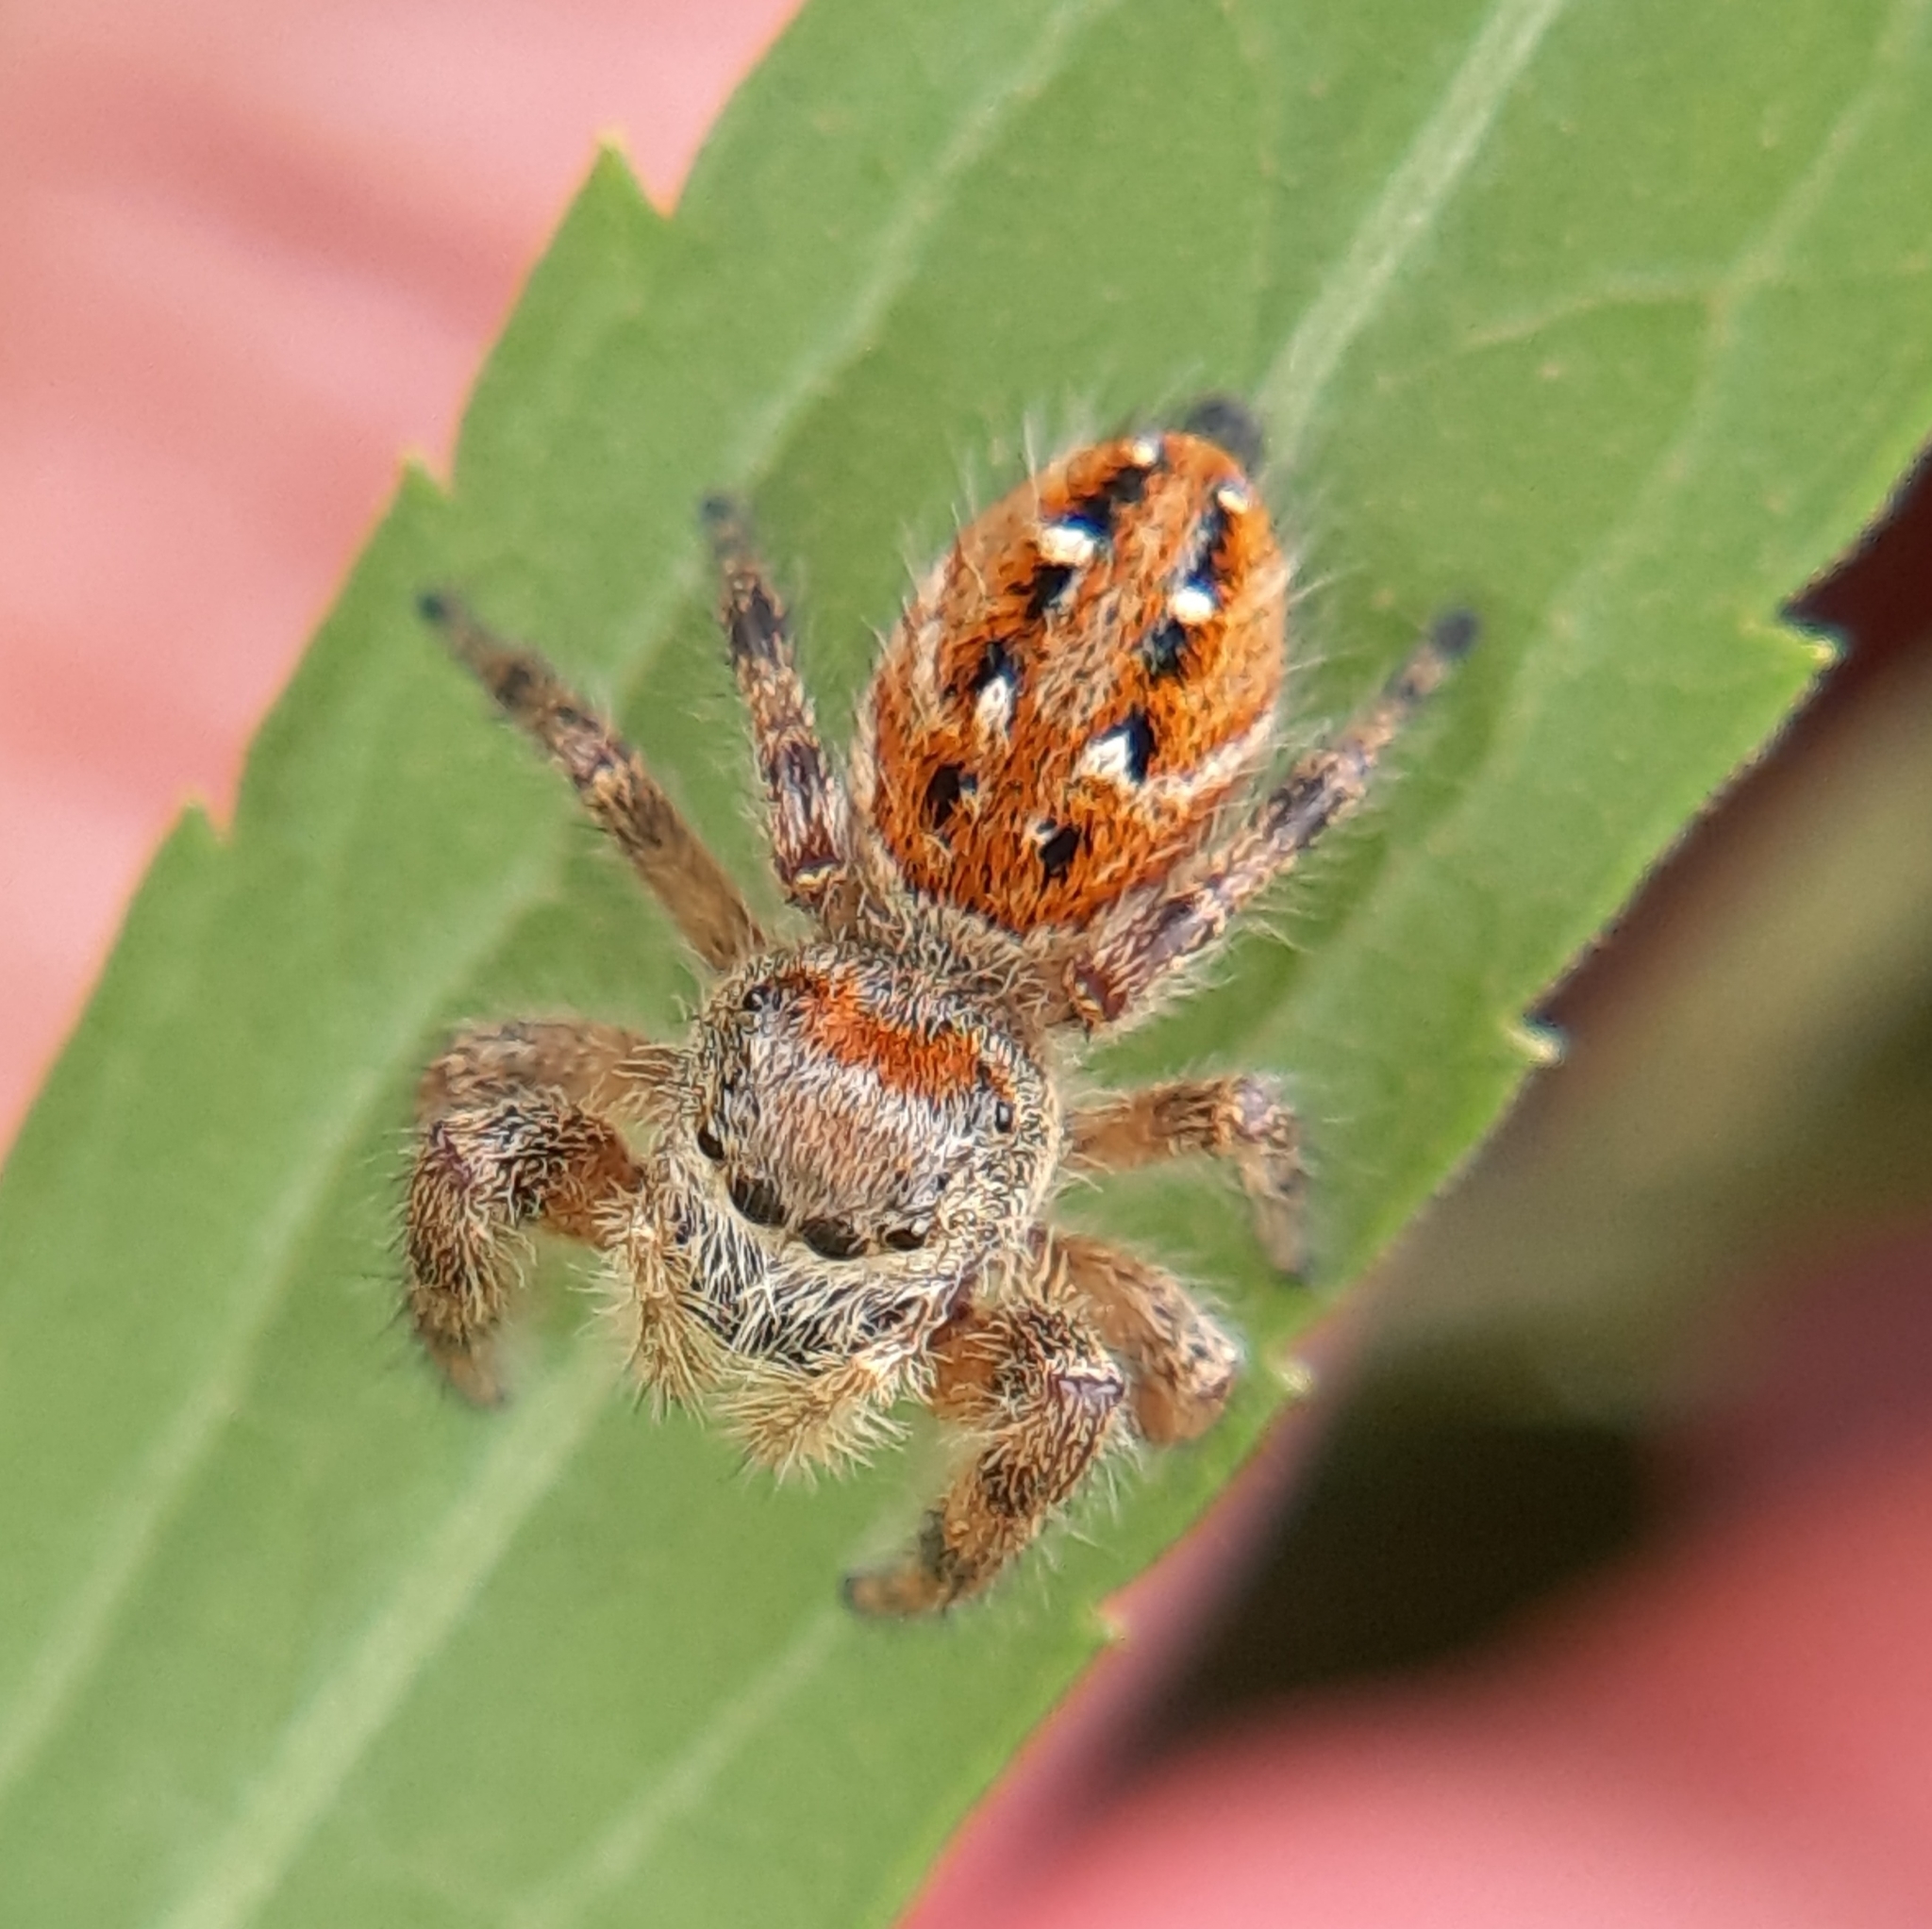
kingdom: Animalia
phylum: Arthropoda
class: Arachnida
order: Araneae
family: Salticidae
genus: Phidippus
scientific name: Phidippus clarus
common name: Brilliant jumping spider
